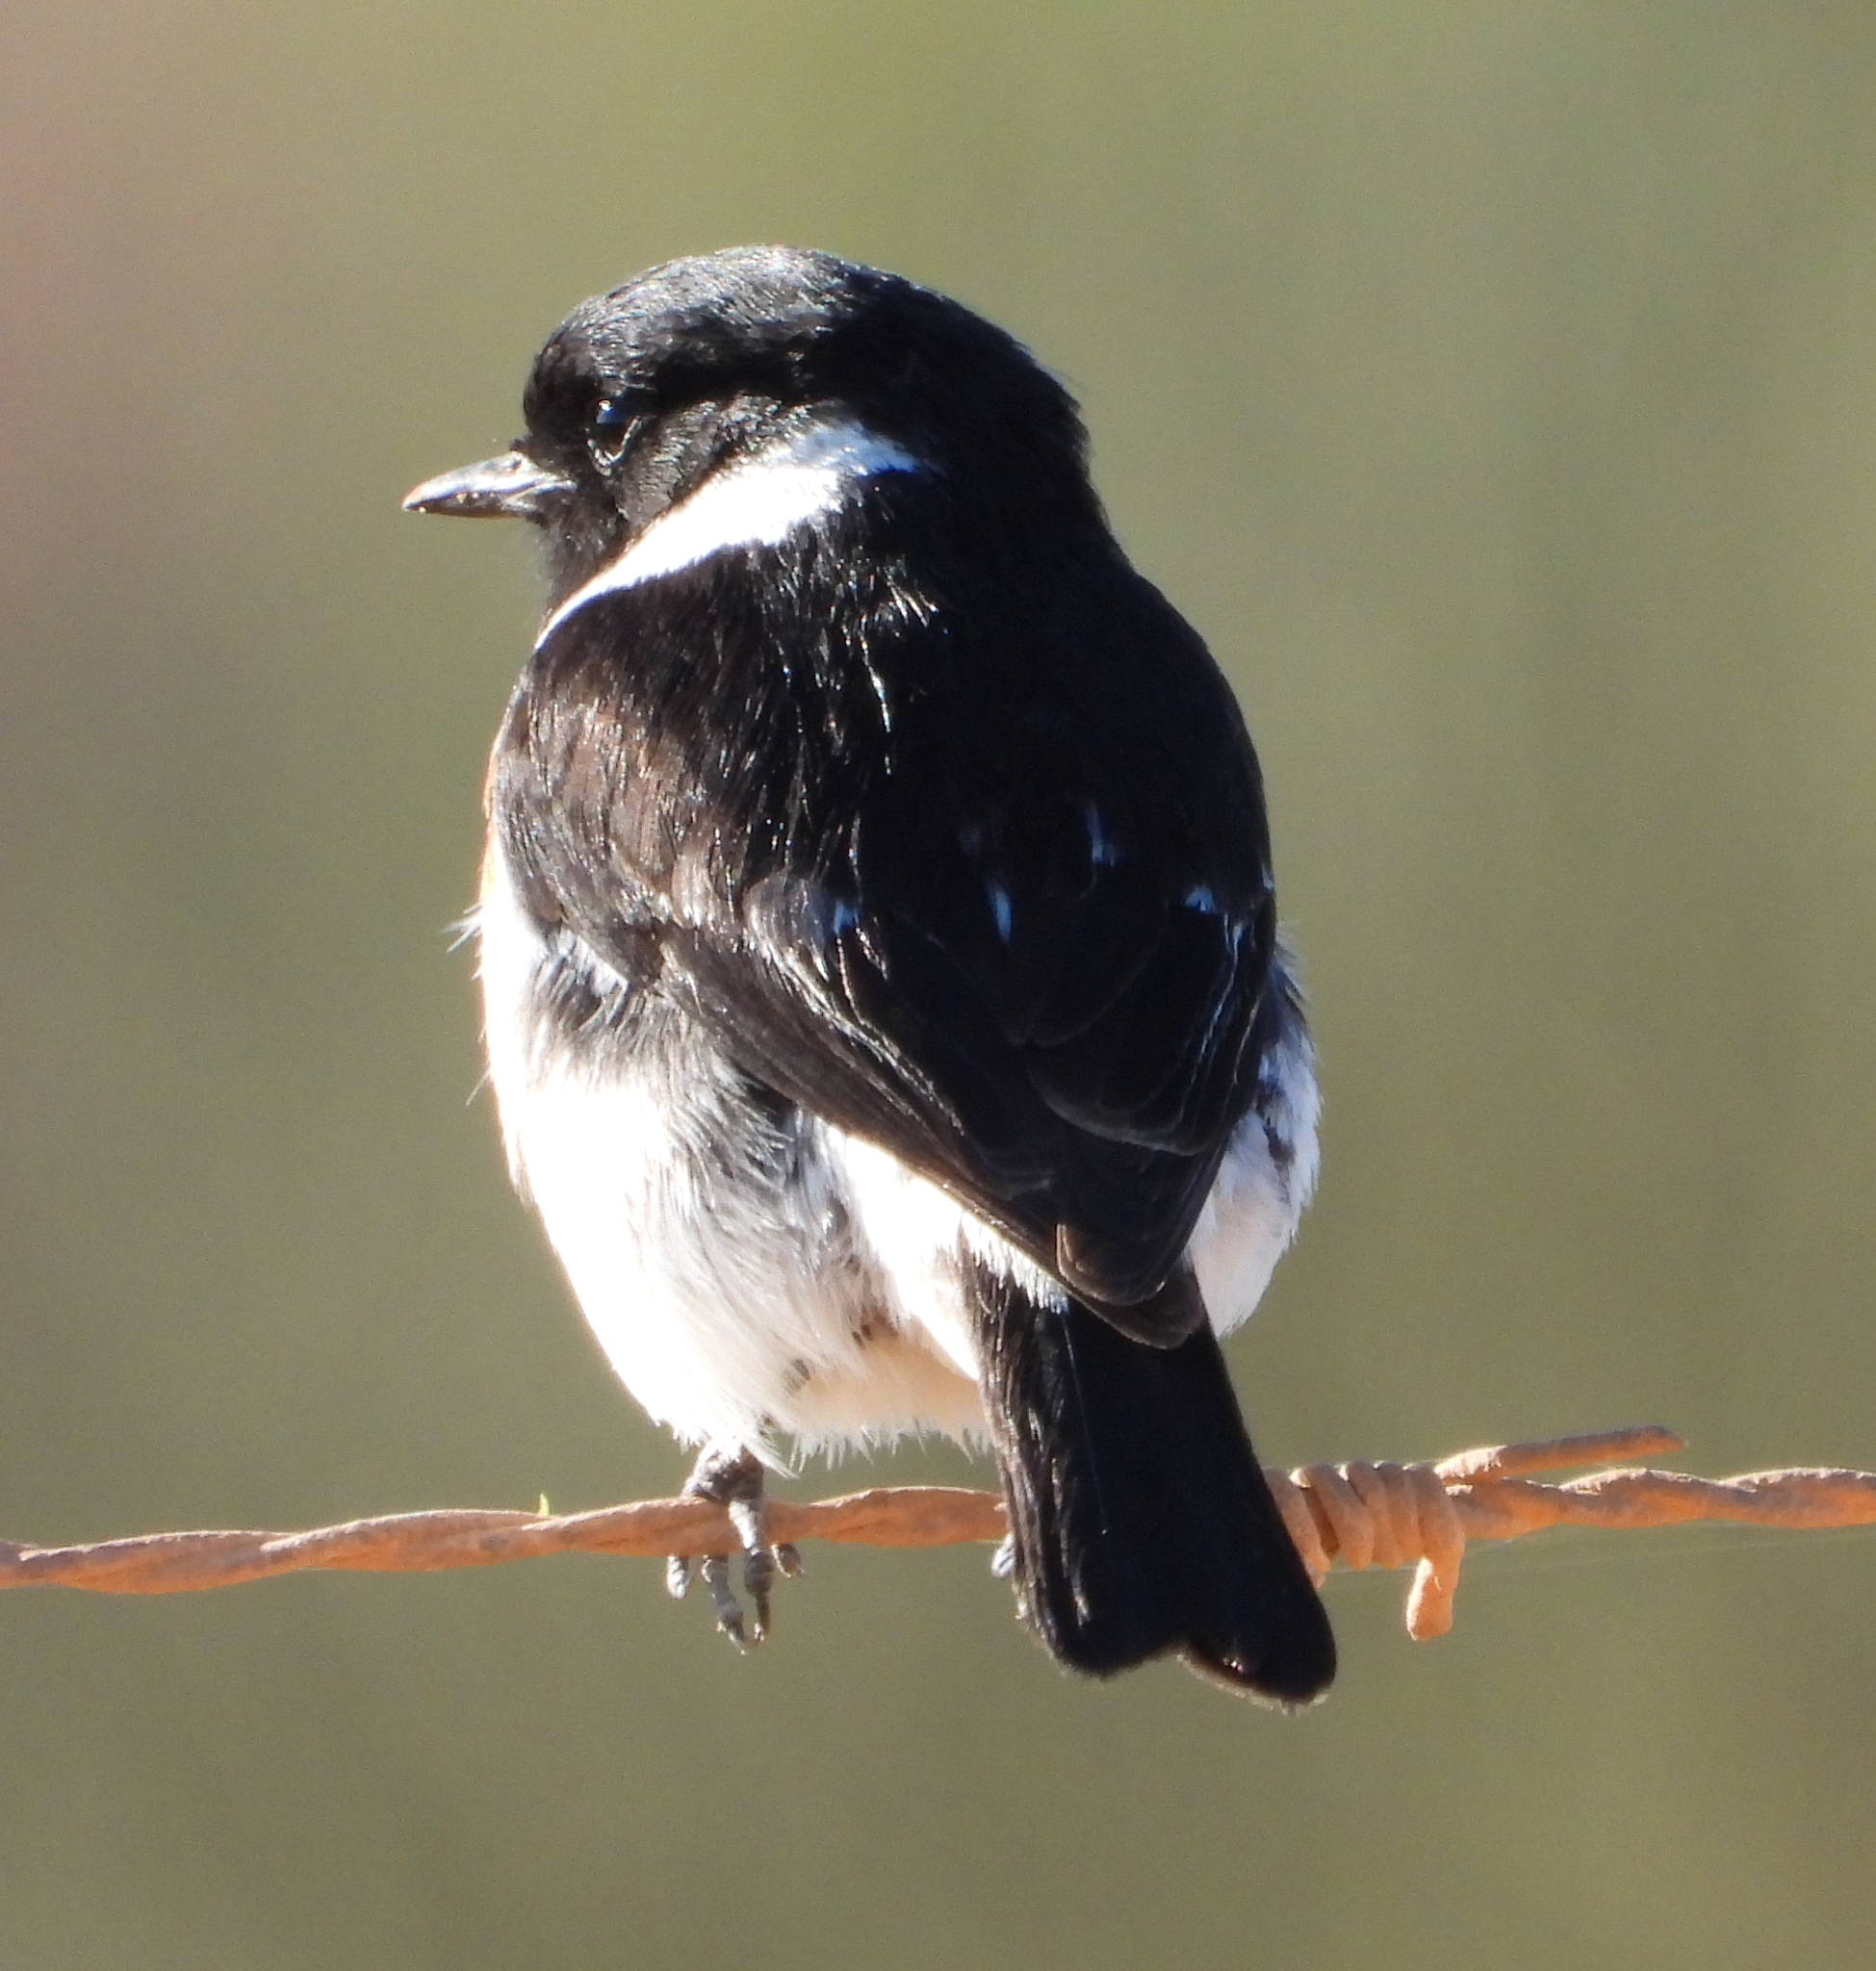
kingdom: Animalia
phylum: Chordata
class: Aves
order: Passeriformes
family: Muscicapidae
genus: Saxicola
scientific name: Saxicola torquatus
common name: African stonechat
